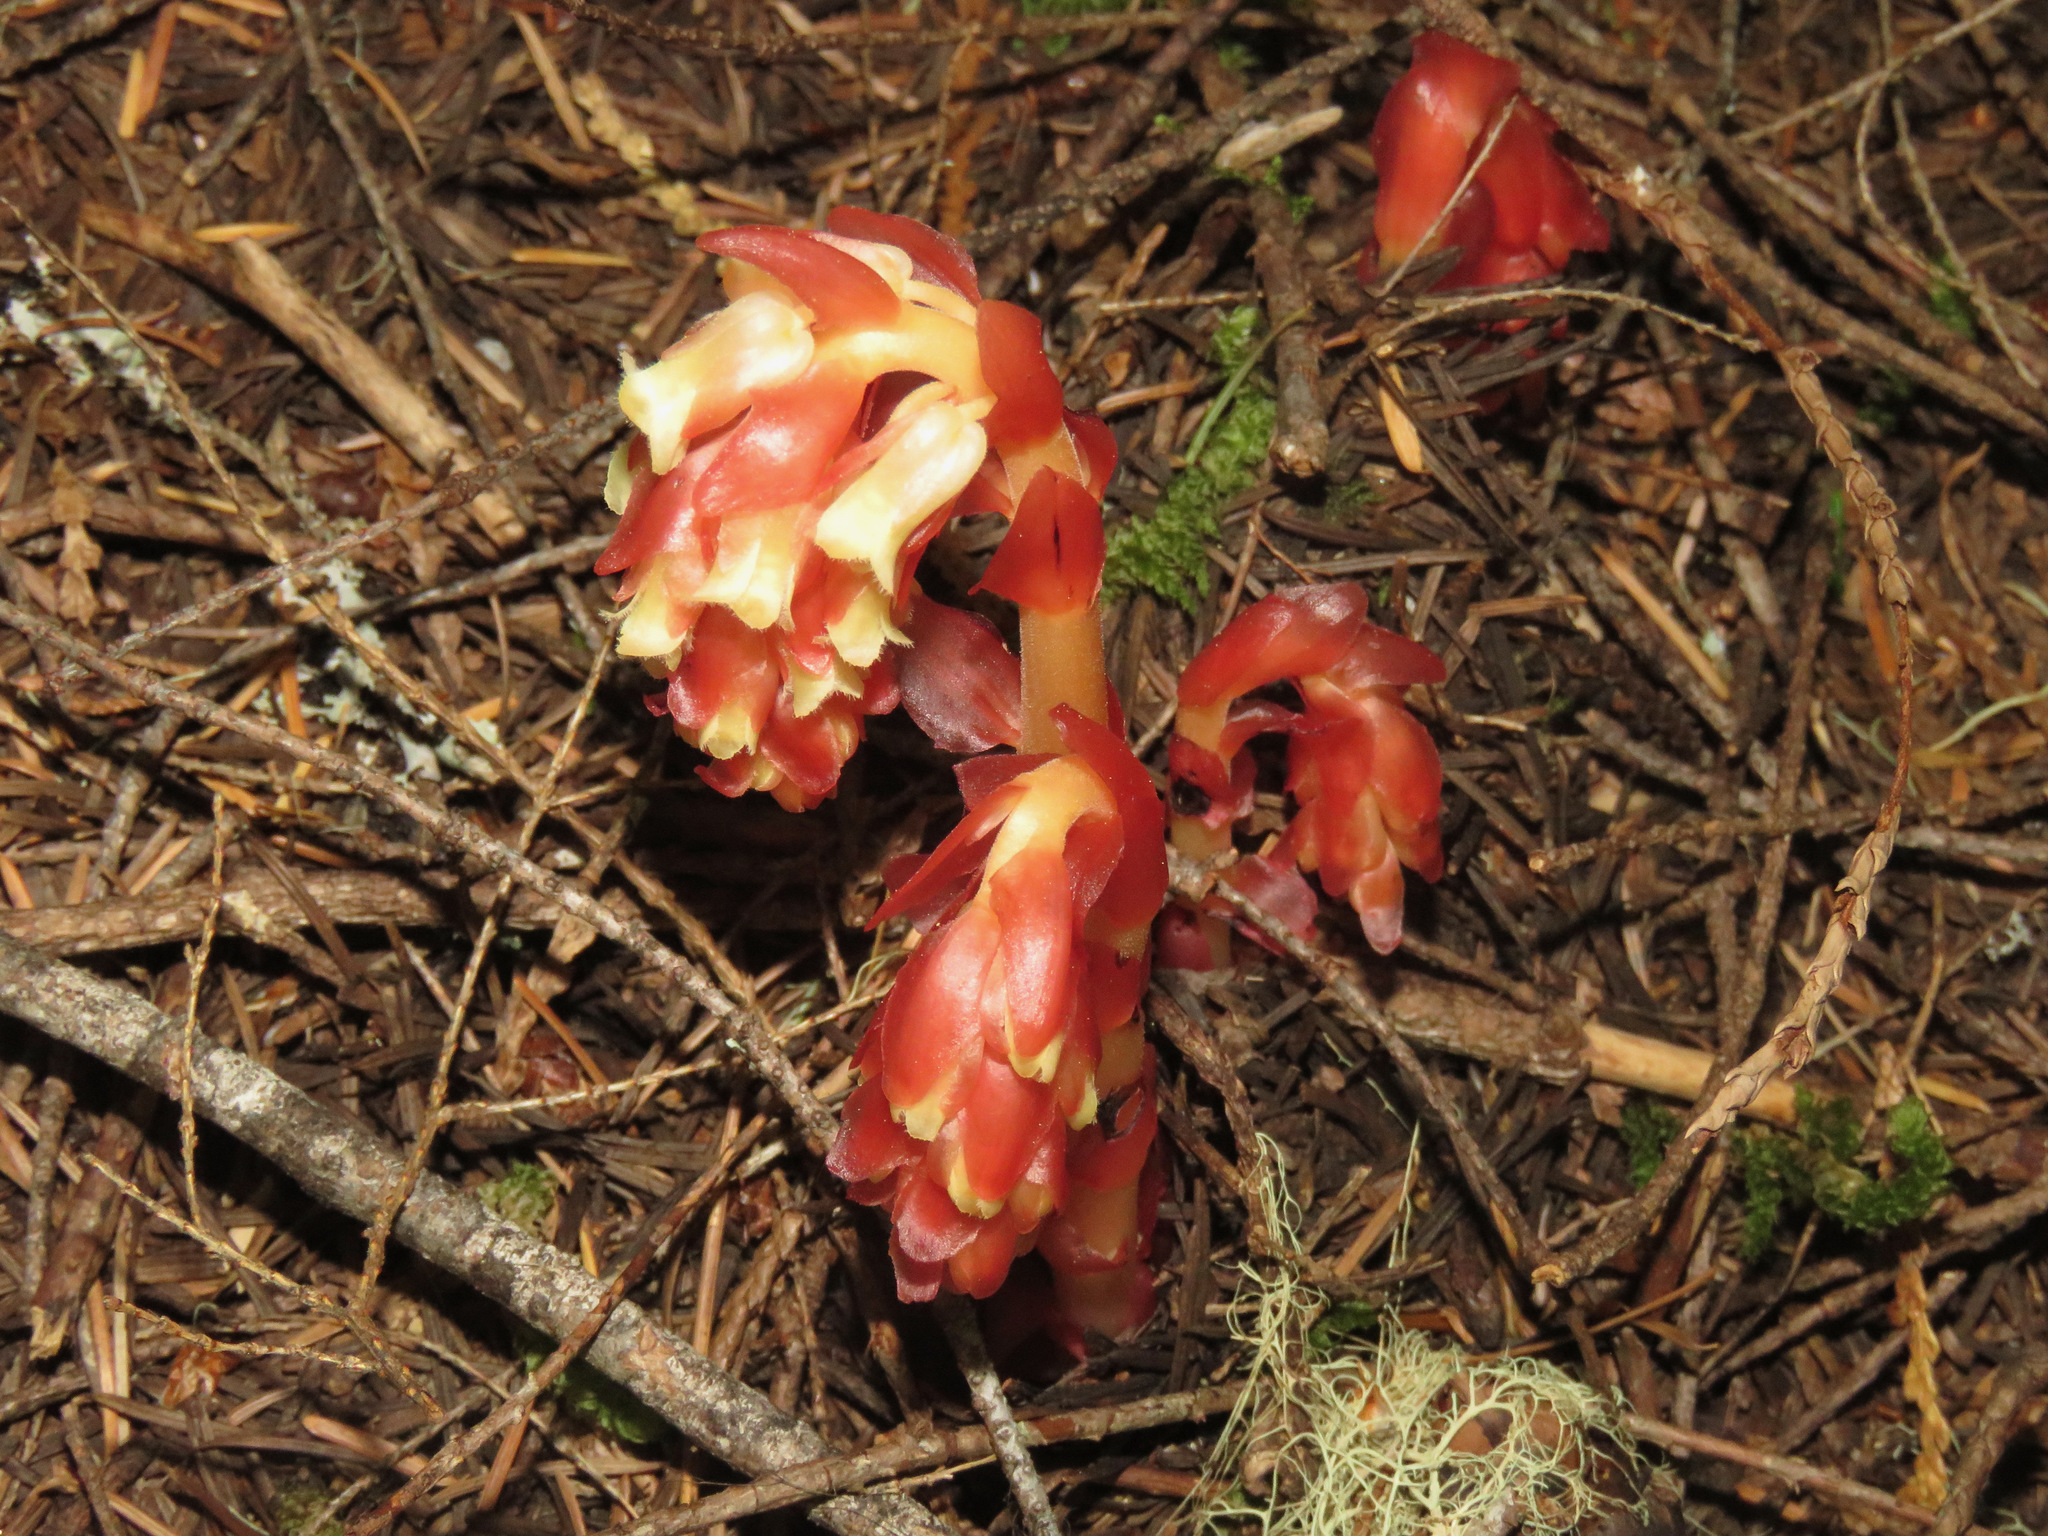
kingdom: Plantae
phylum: Tracheophyta
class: Magnoliopsida
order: Ericales
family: Ericaceae
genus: Hypopitys
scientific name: Hypopitys monotropa
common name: Yellow bird's-nest
